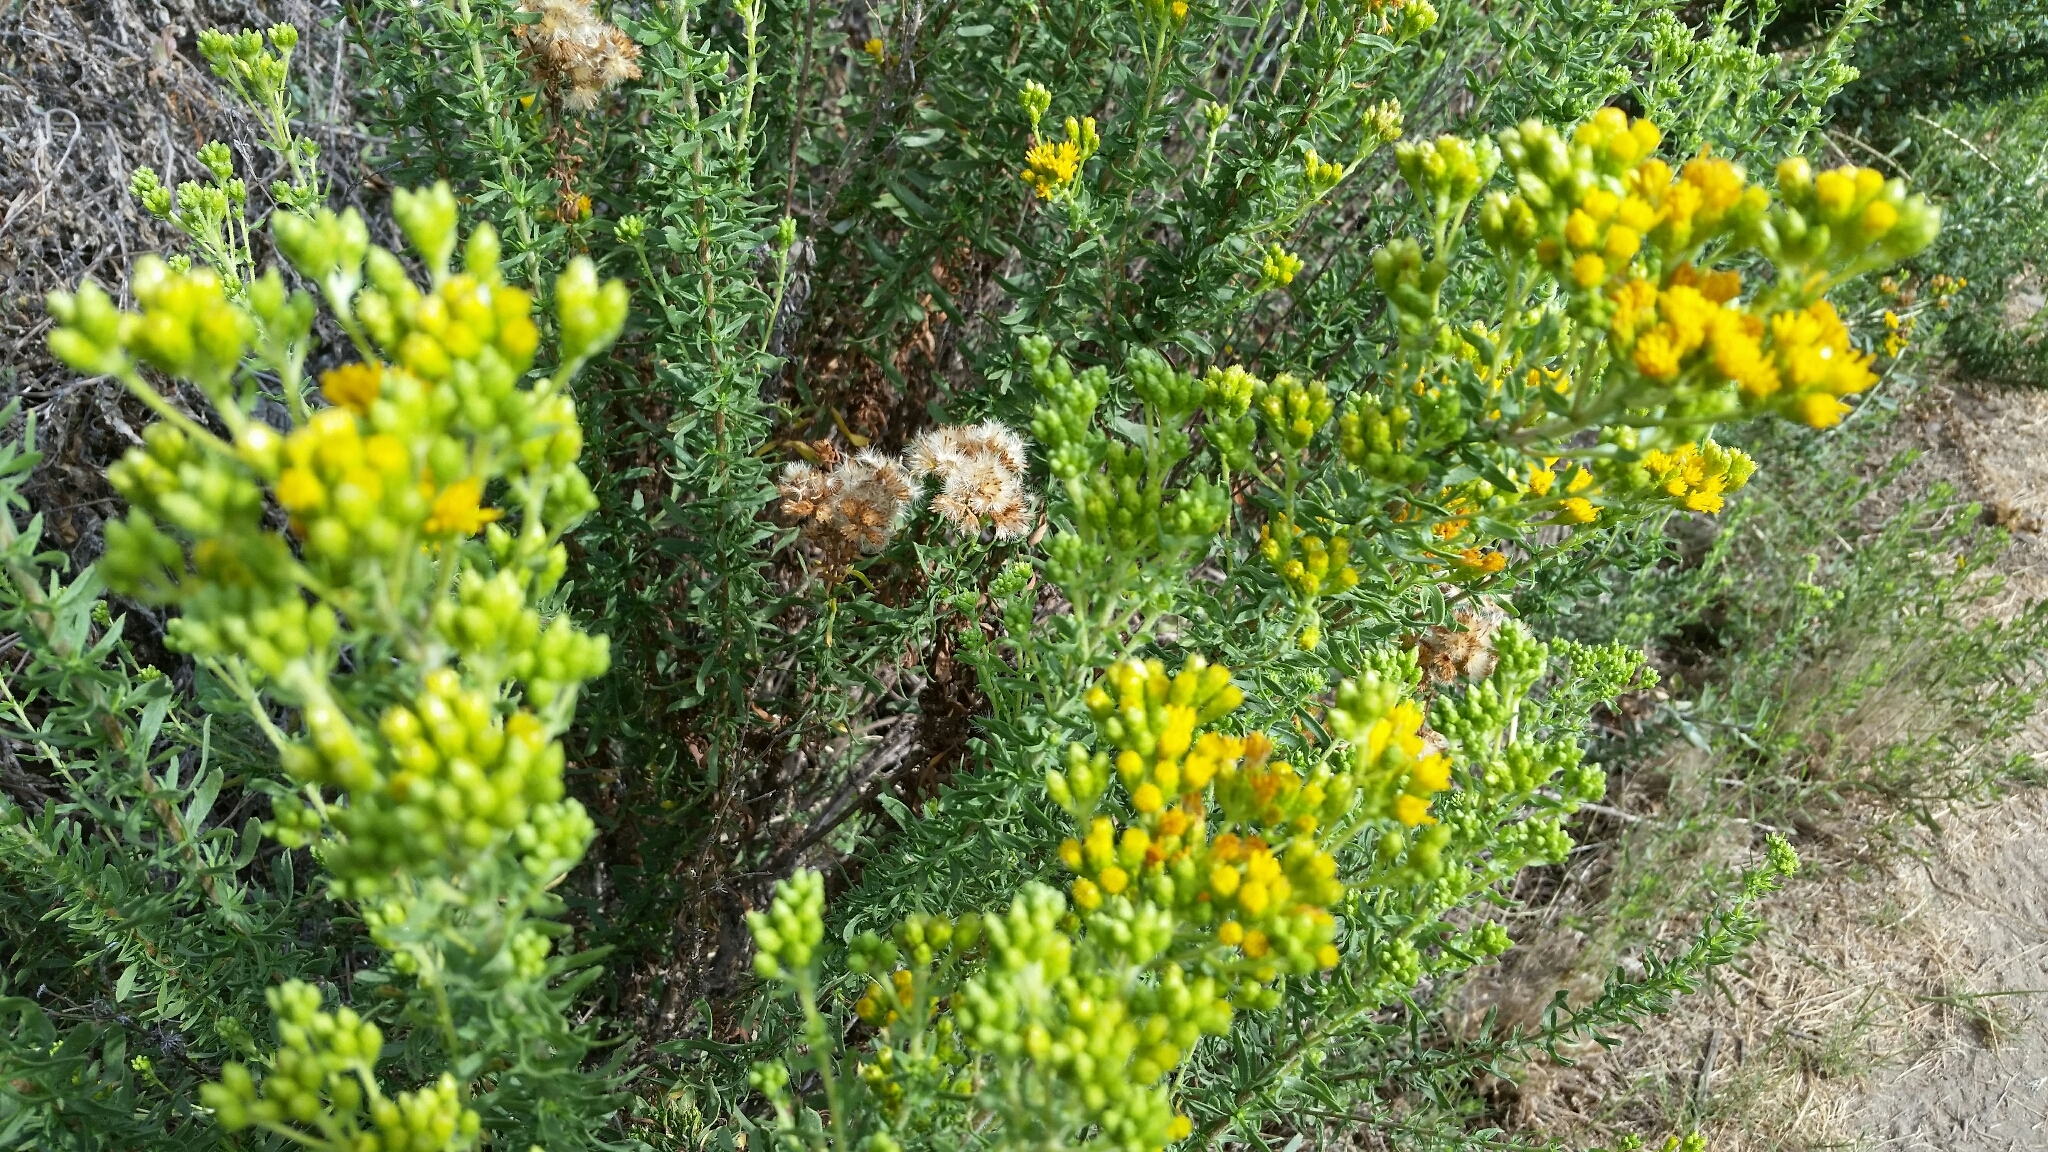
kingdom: Plantae
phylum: Tracheophyta
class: Magnoliopsida
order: Asterales
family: Asteraceae
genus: Isocoma
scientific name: Isocoma menziesii
